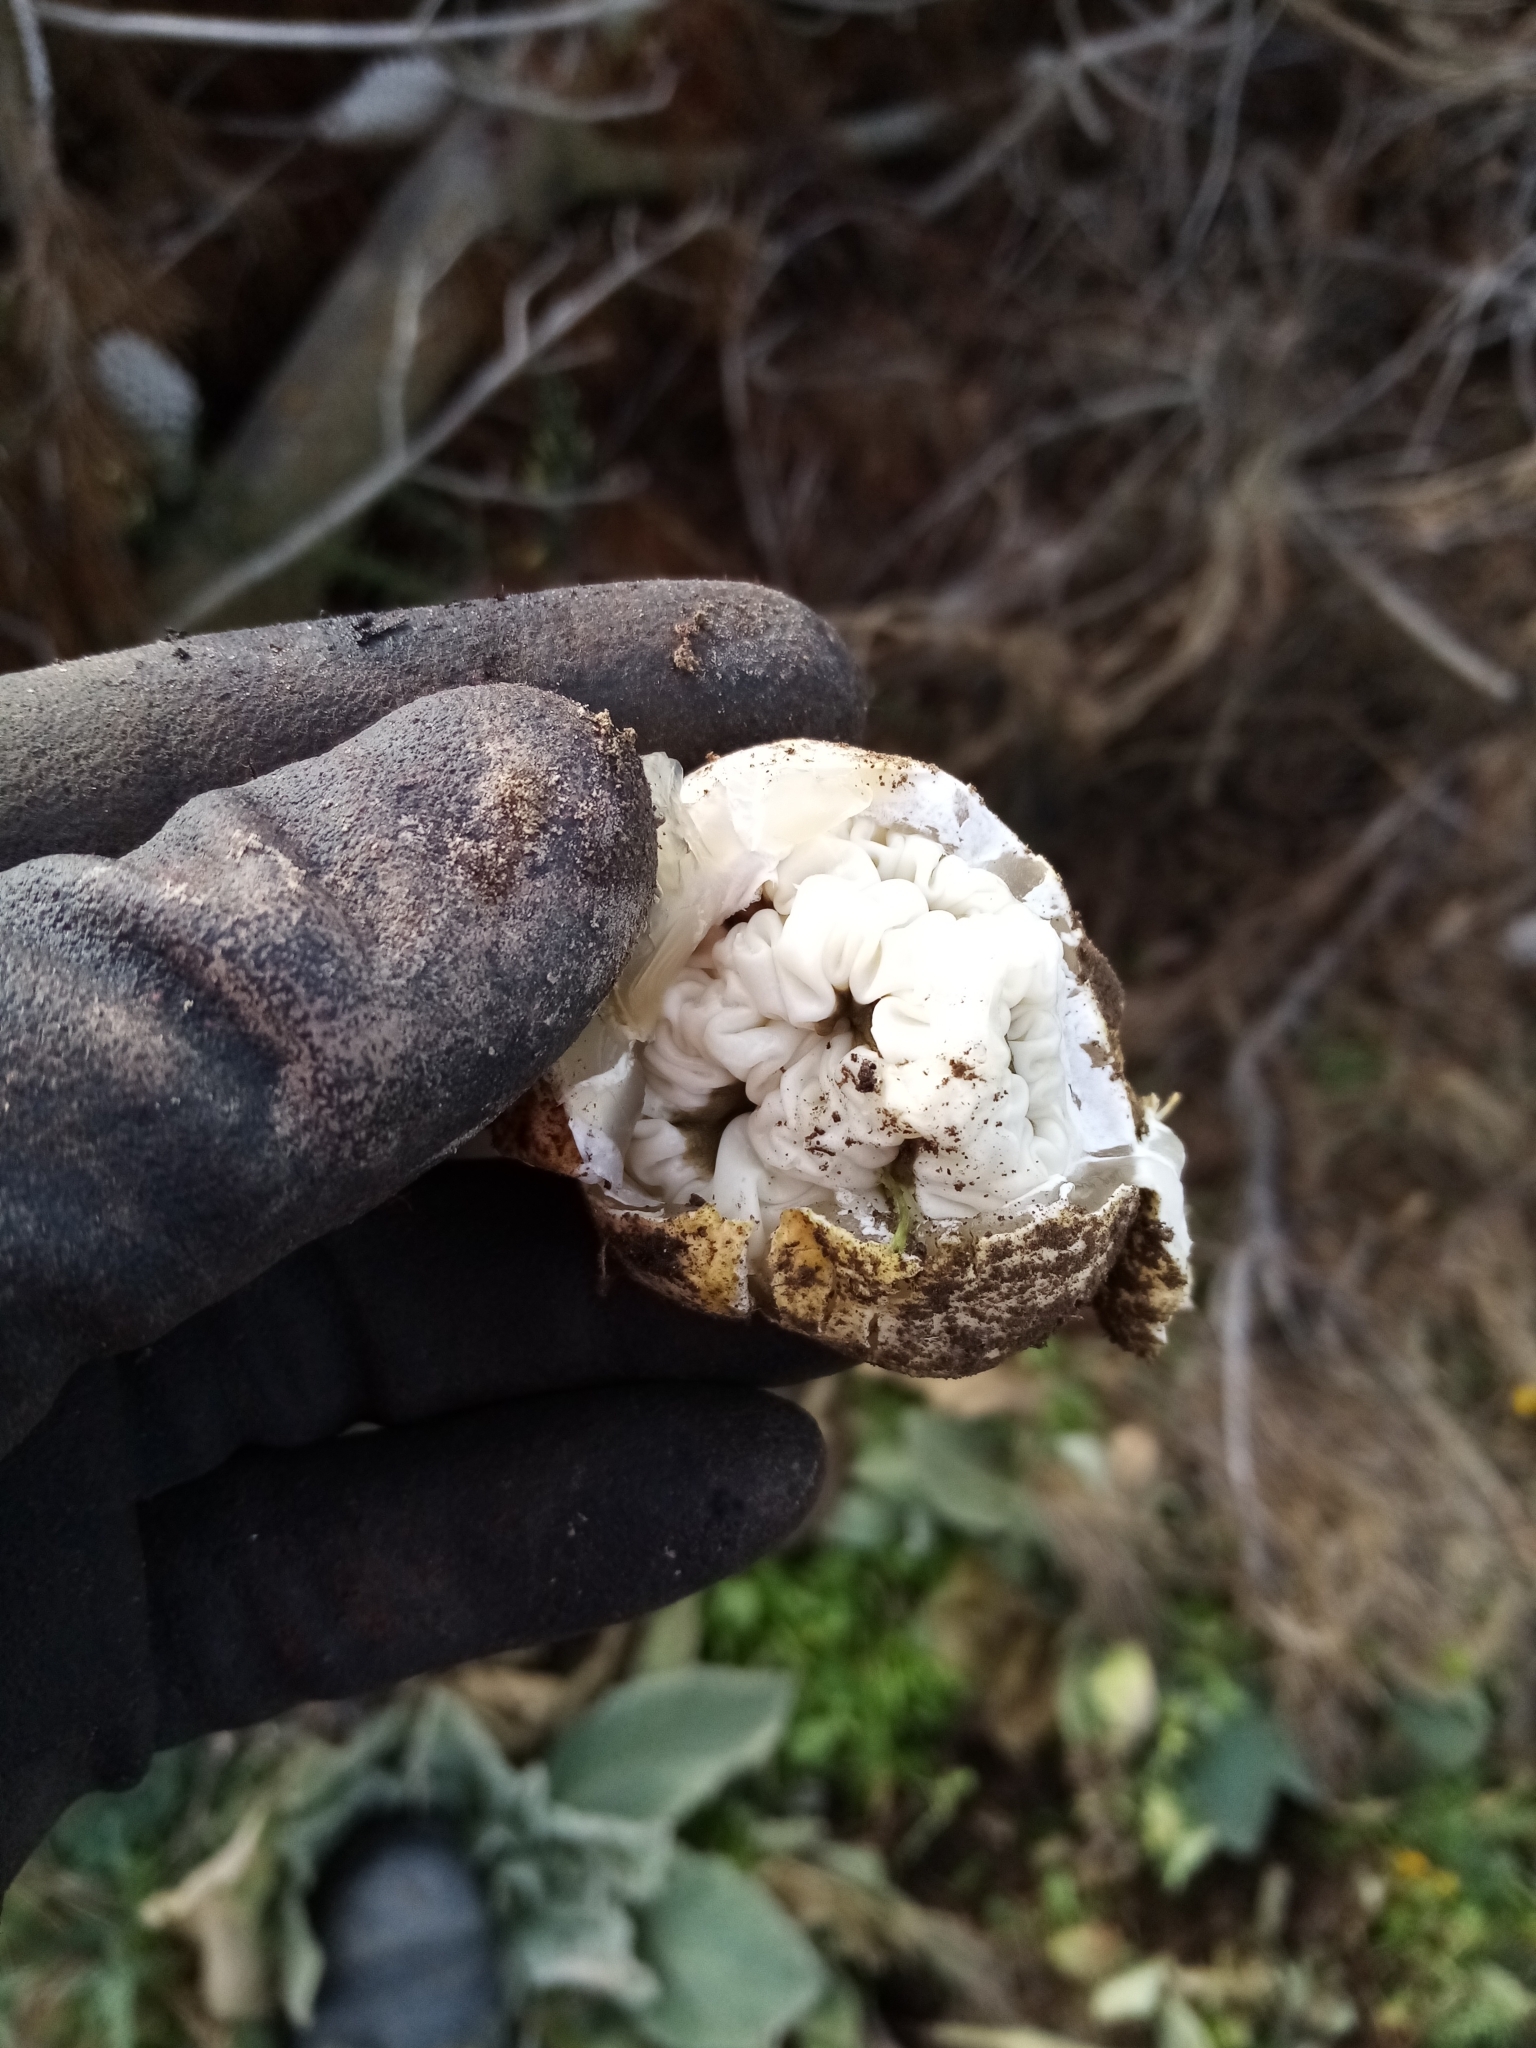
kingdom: Fungi
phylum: Basidiomycota
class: Agaricomycetes
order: Phallales
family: Phallaceae
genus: Ileodictyon
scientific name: Ileodictyon cibarium
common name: Basket fungus
